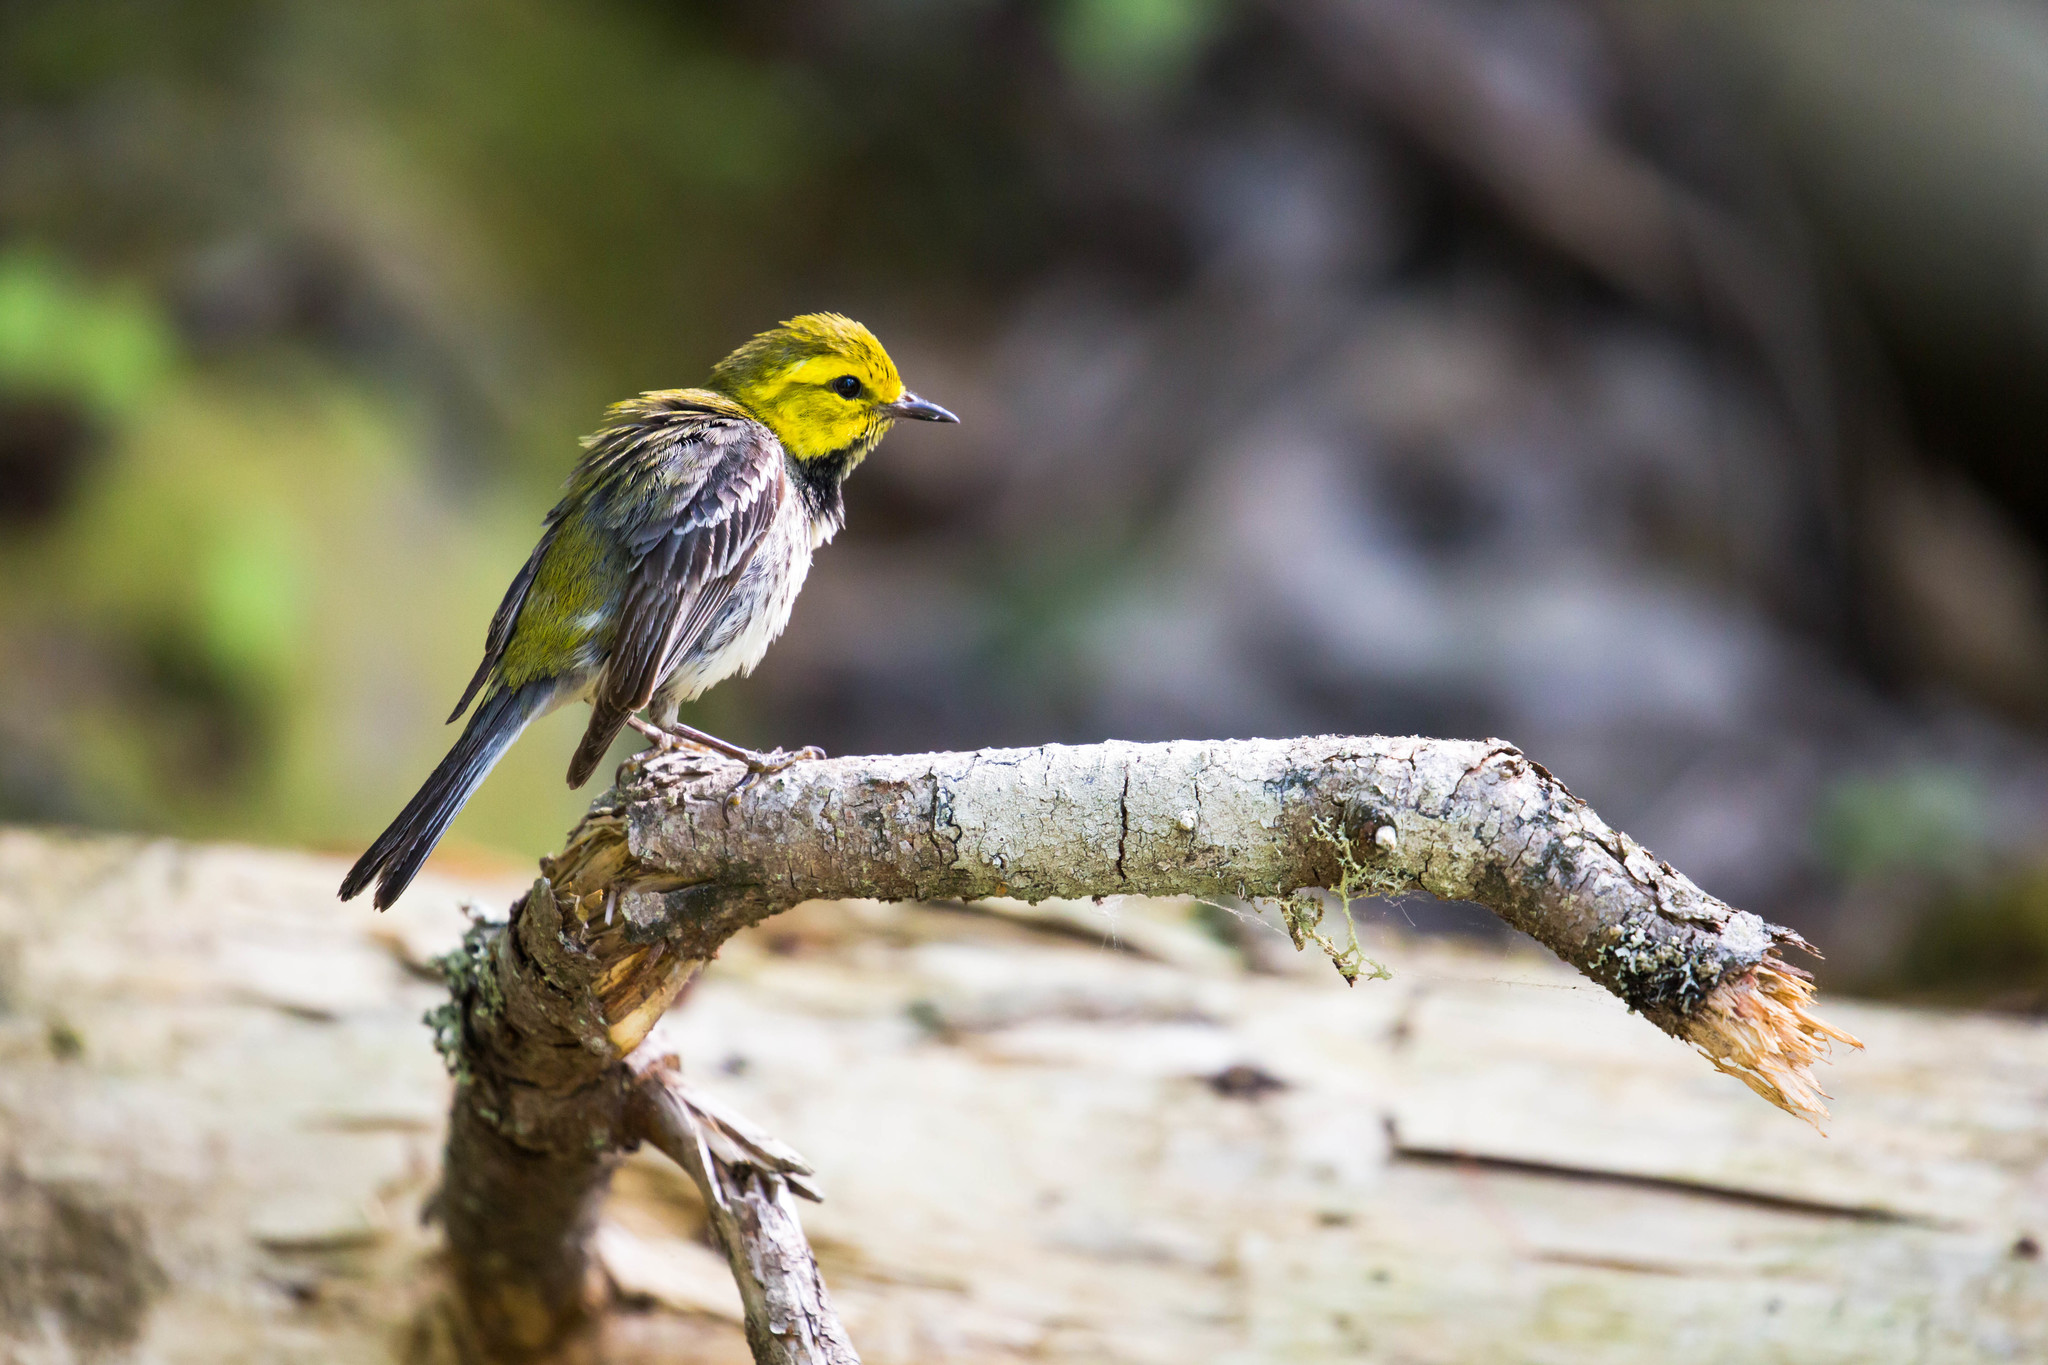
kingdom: Animalia
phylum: Chordata
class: Aves
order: Passeriformes
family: Parulidae
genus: Setophaga
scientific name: Setophaga virens
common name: Black-throated green warbler
